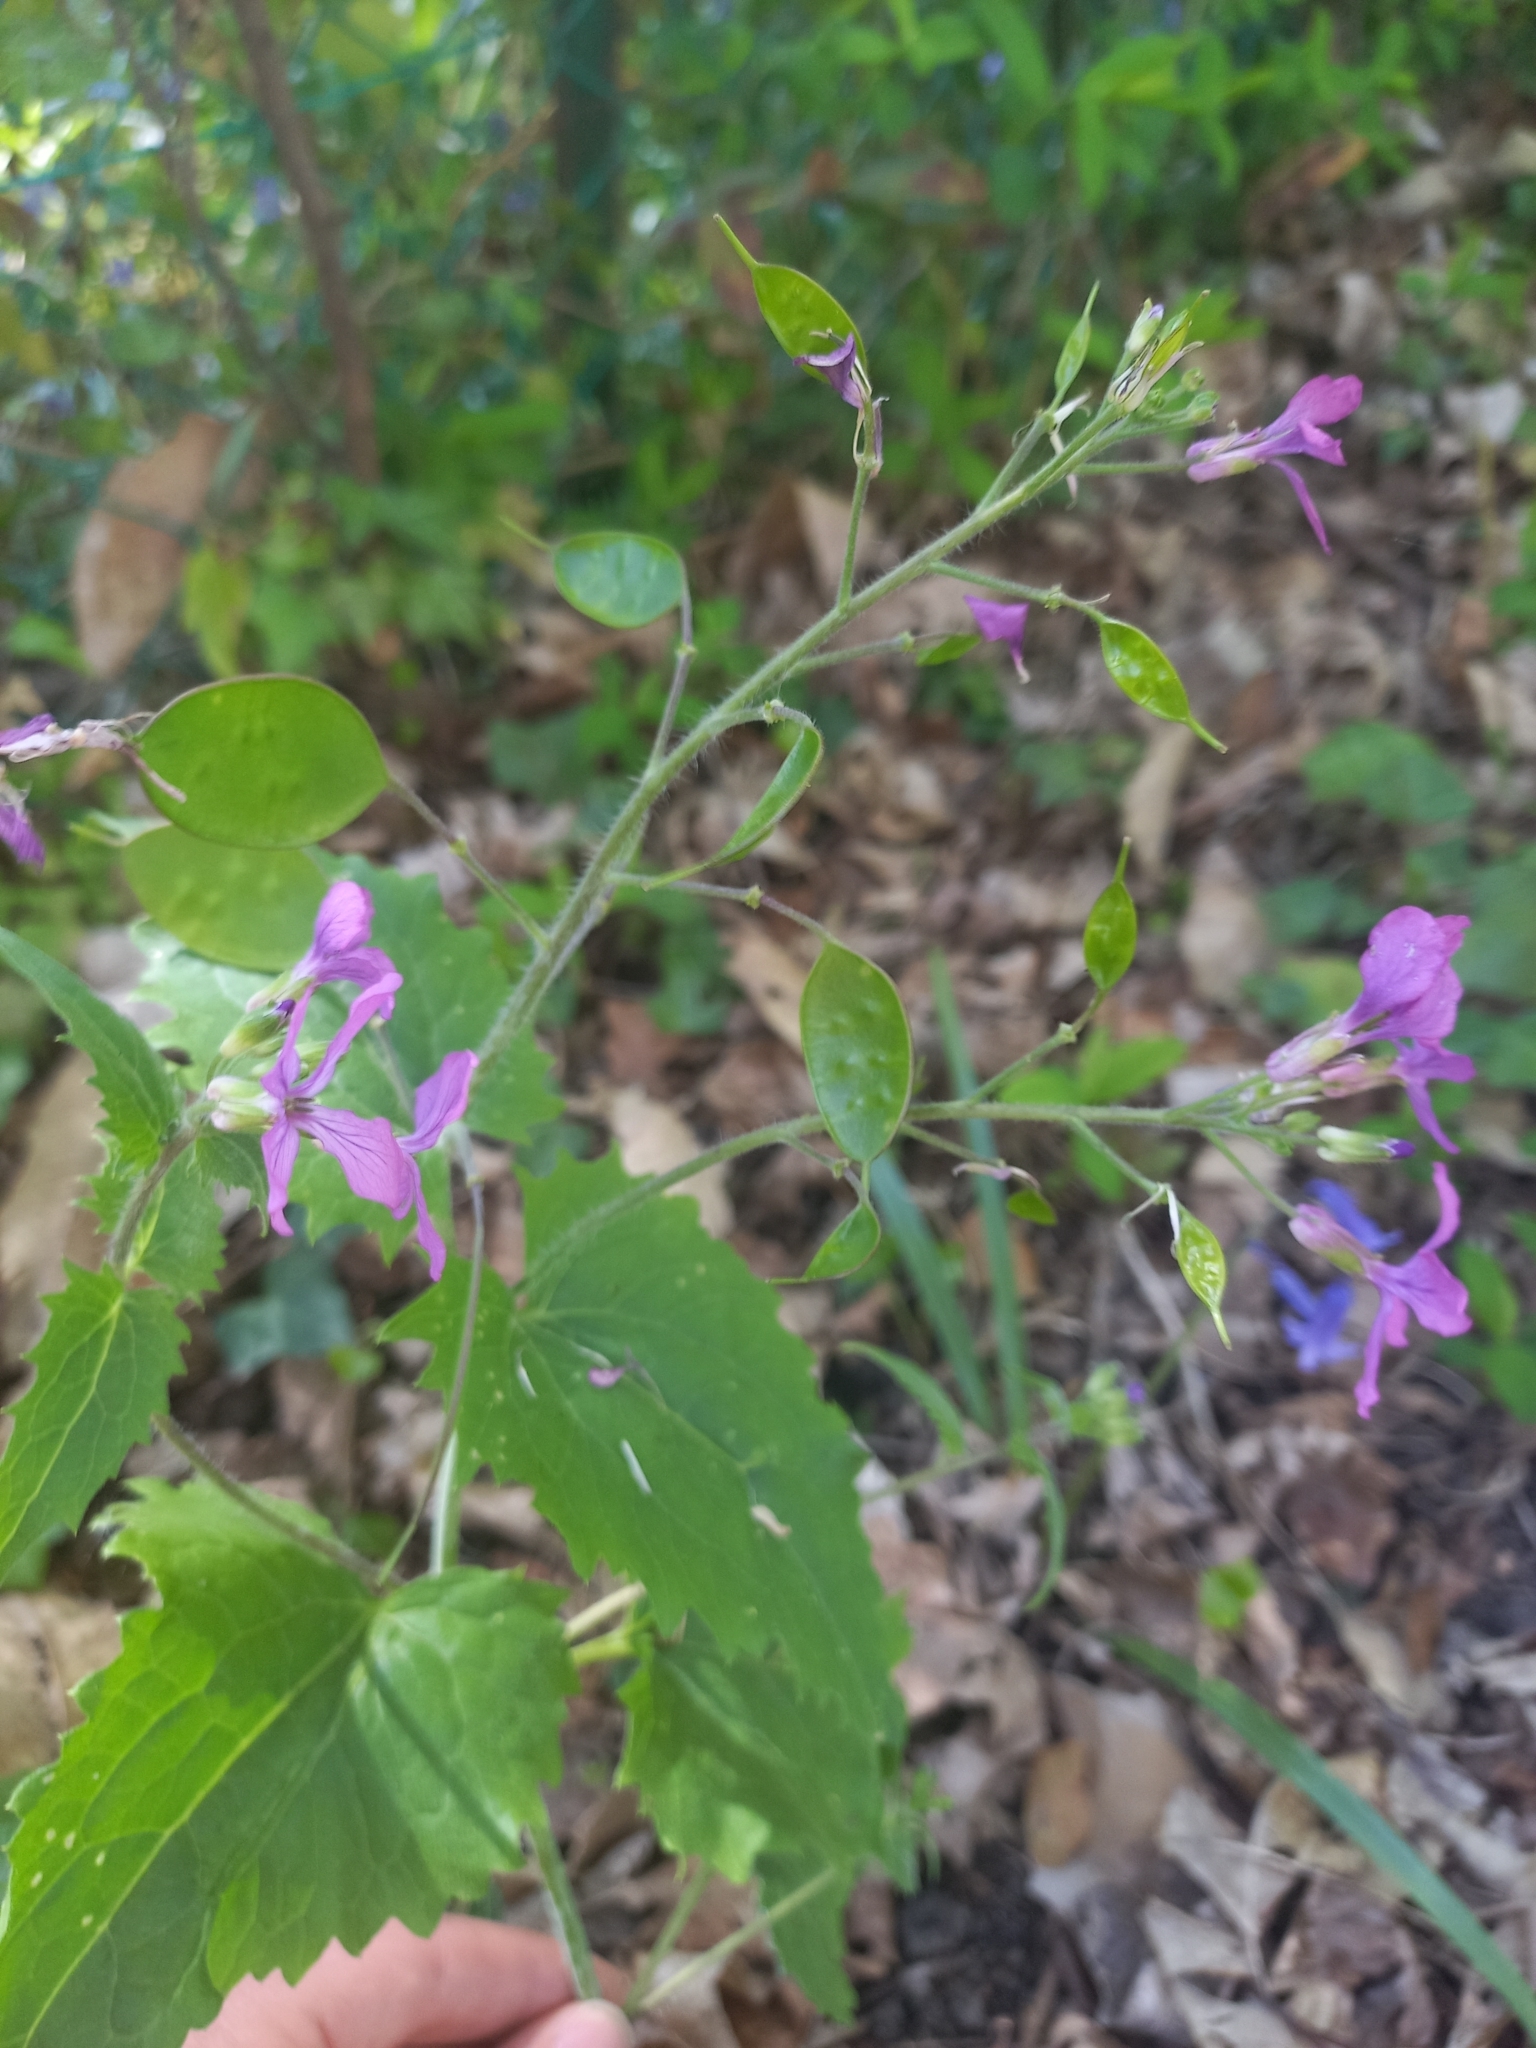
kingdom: Plantae
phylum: Tracheophyta
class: Magnoliopsida
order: Brassicales
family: Brassicaceae
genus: Lunaria
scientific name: Lunaria annua
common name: Honesty
